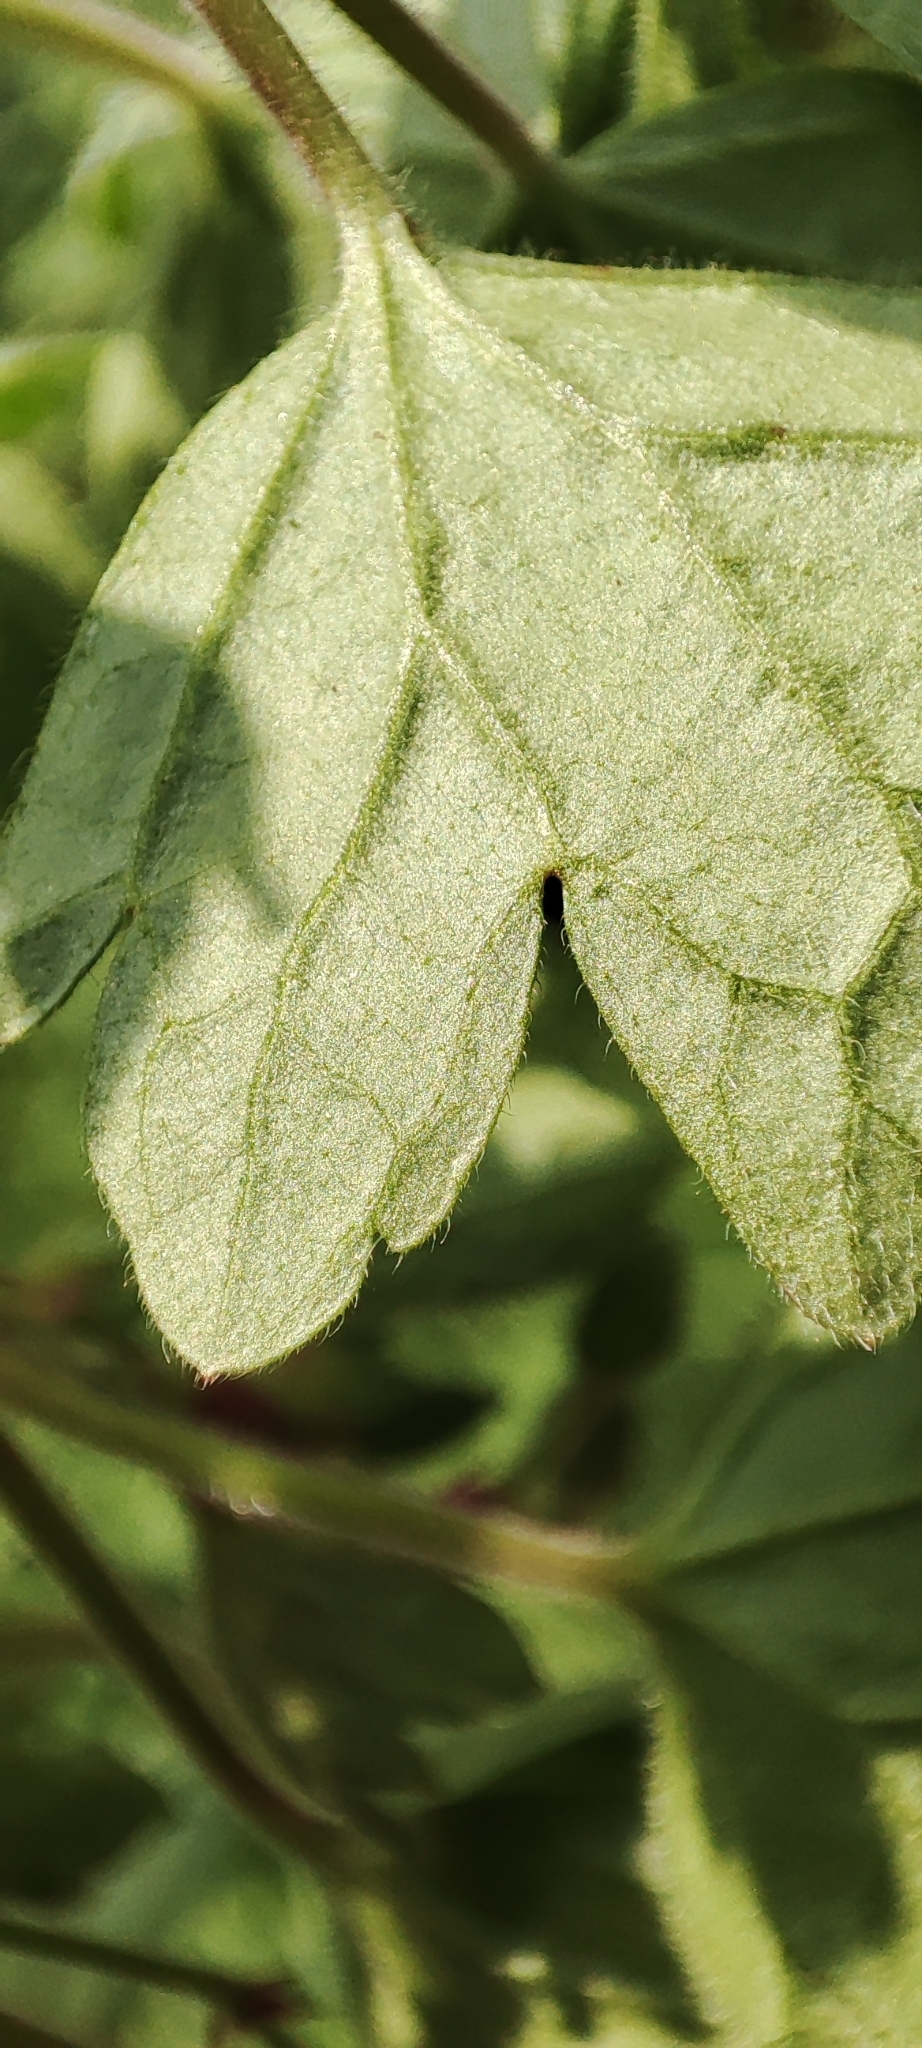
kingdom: Plantae
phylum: Tracheophyta
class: Magnoliopsida
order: Geraniales
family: Geraniaceae
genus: Geranium
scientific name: Geranium rotundifolium
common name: Round-leaved crane's-bill
